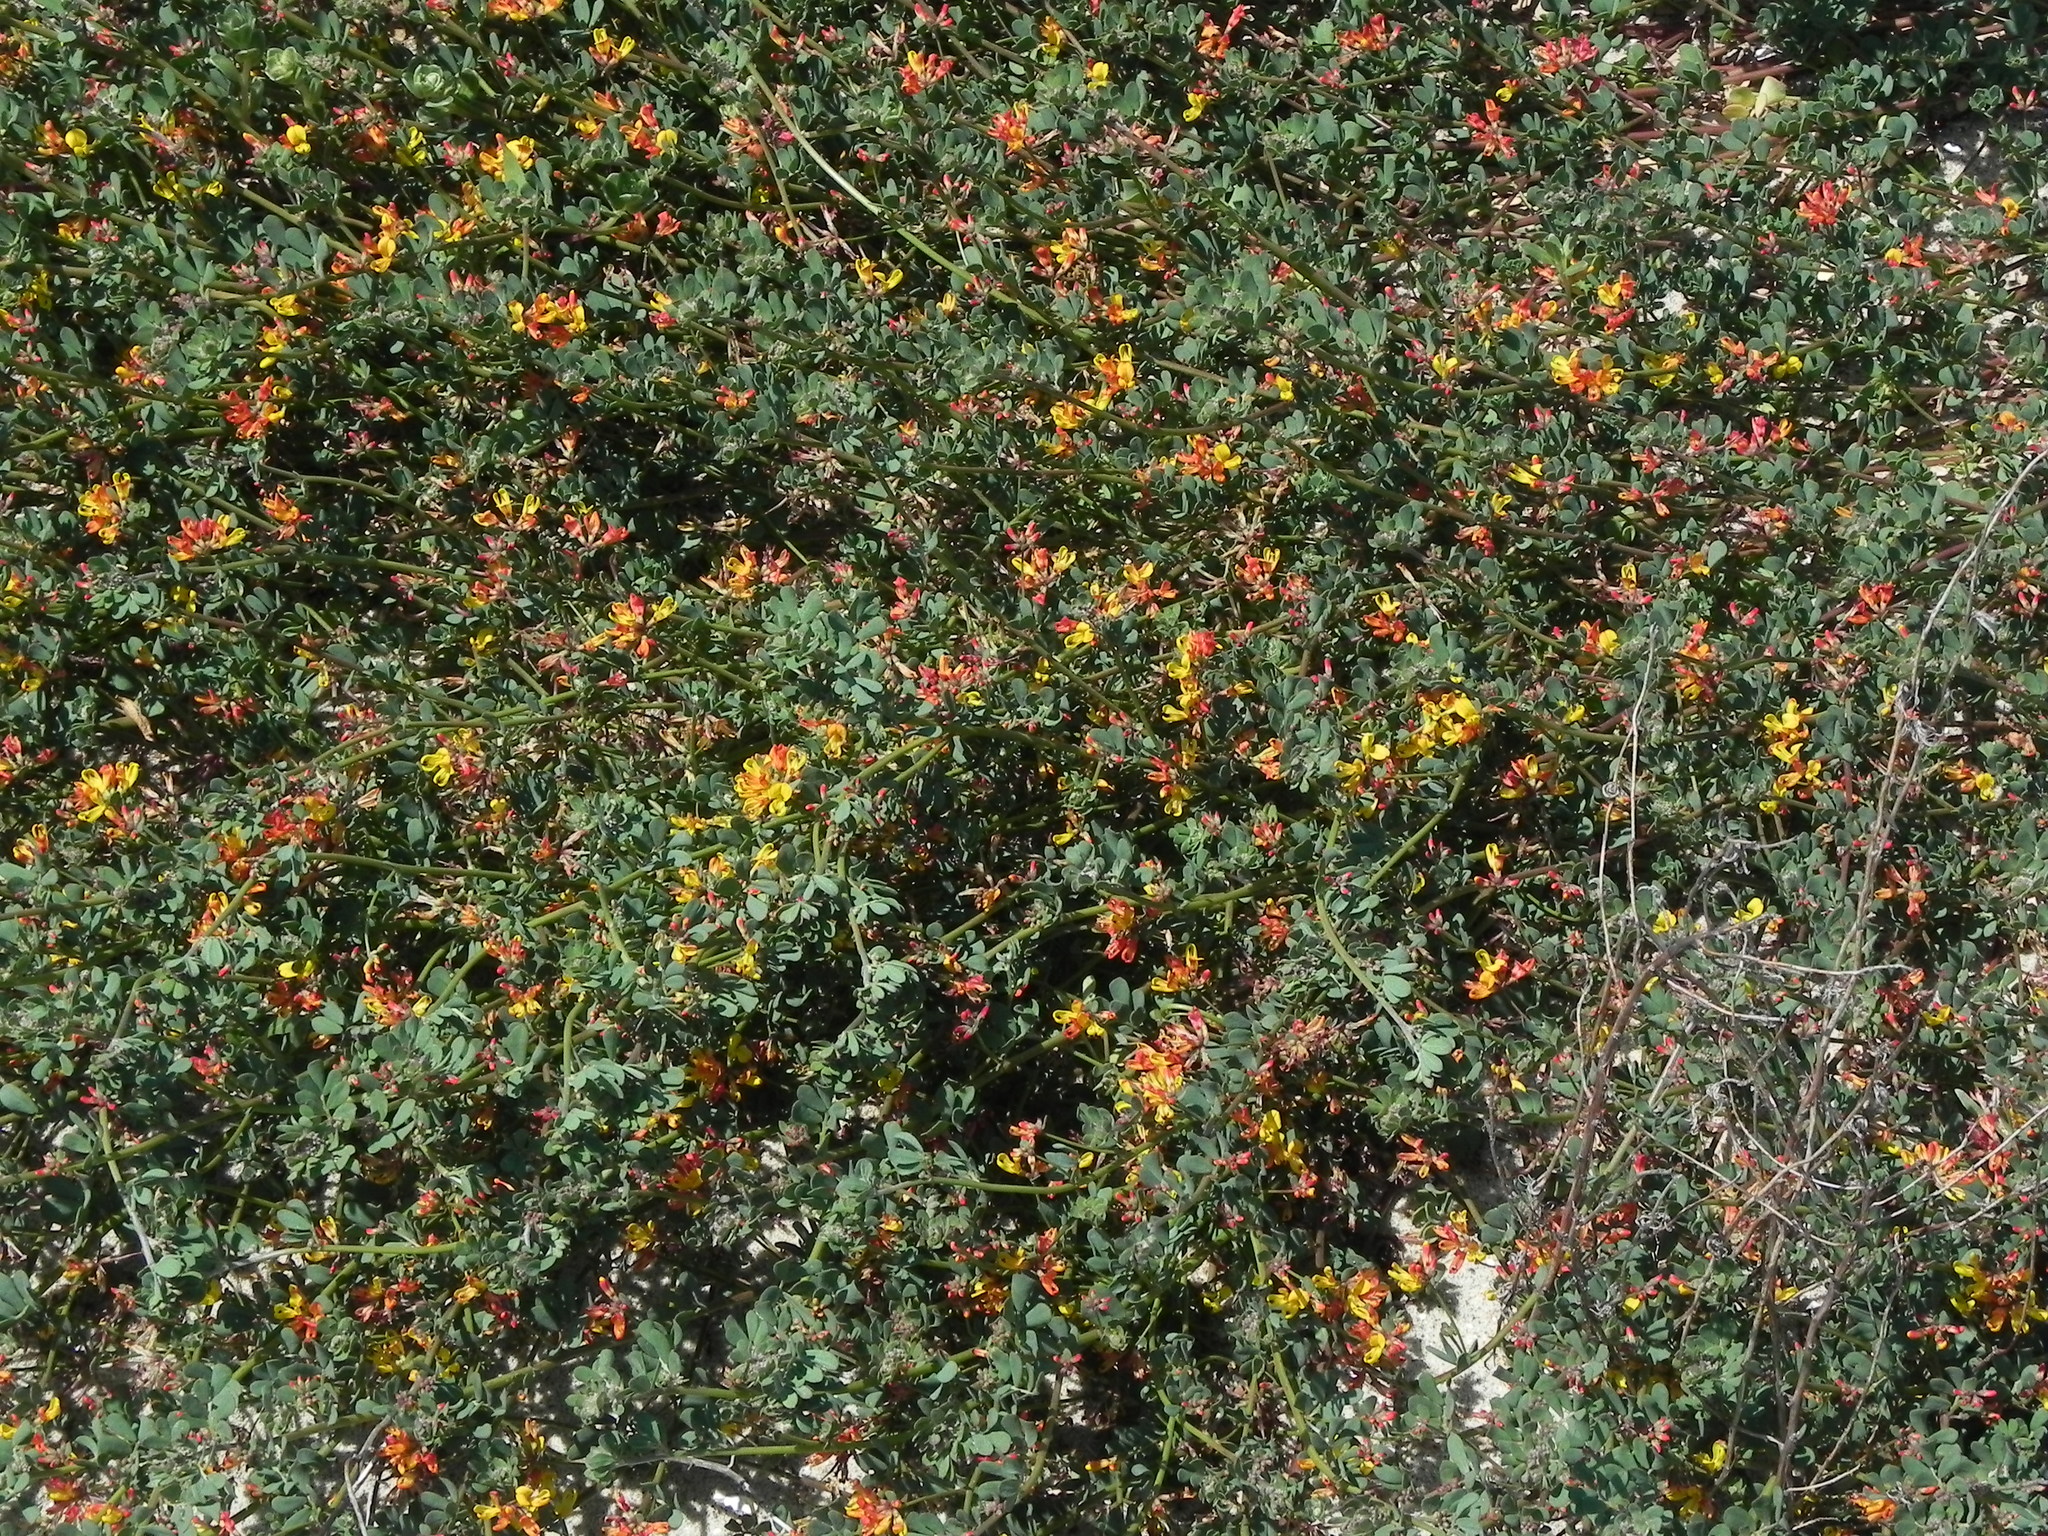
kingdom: Plantae
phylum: Tracheophyta
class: Magnoliopsida
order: Fabales
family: Fabaceae
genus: Acmispon
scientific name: Acmispon prostratus
